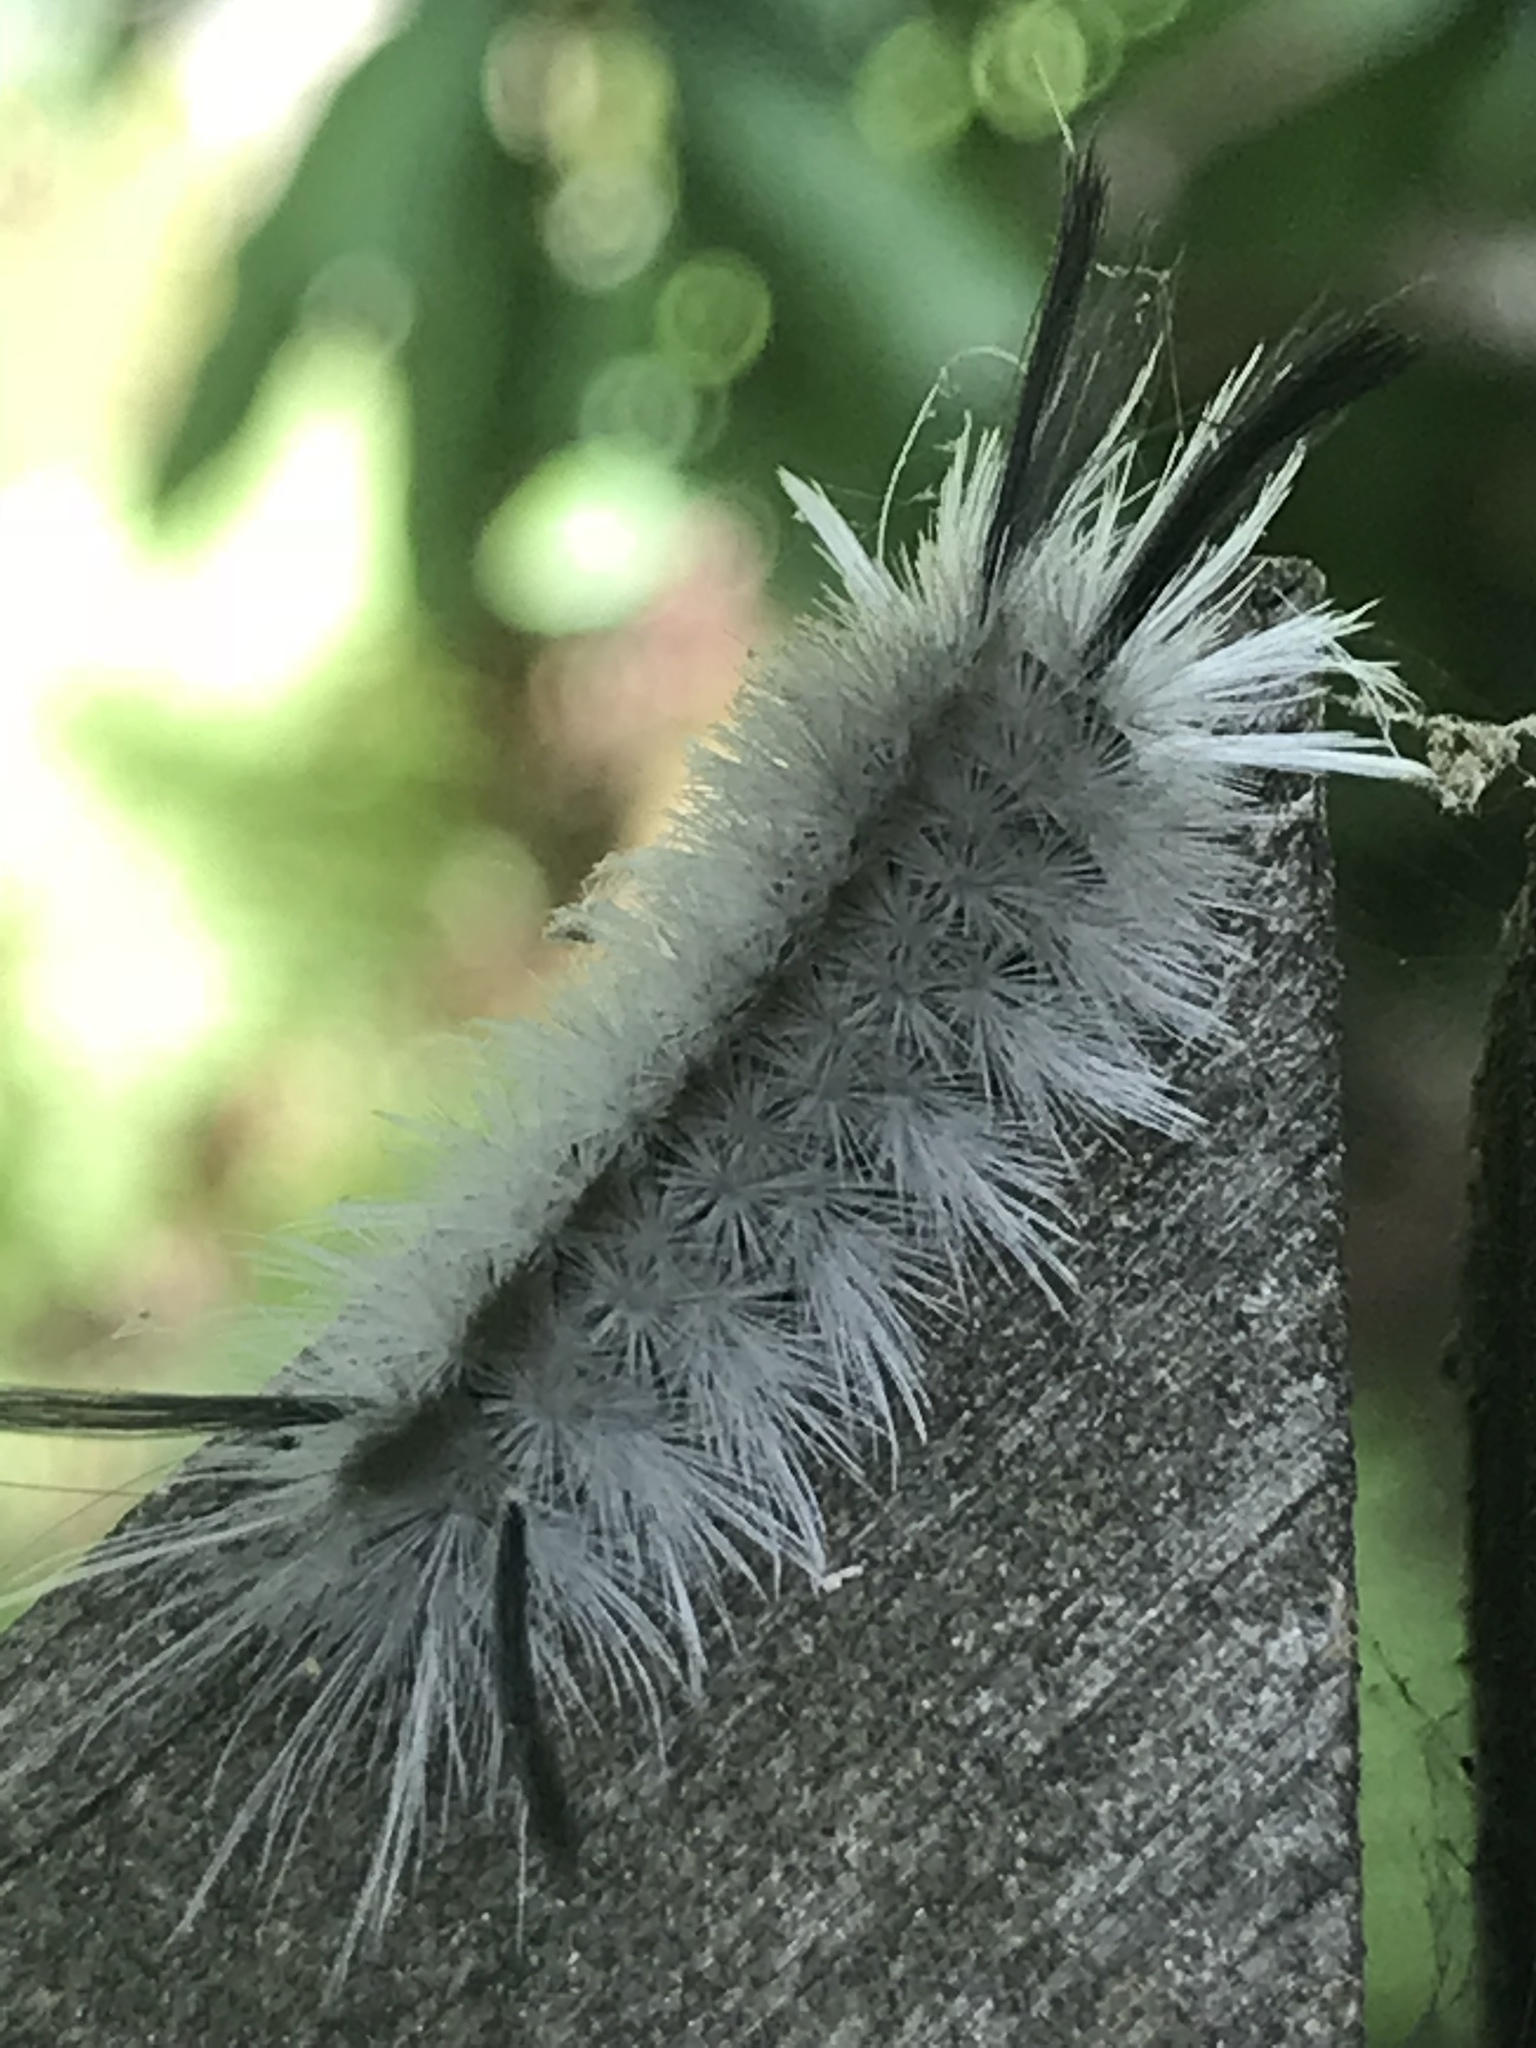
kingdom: Animalia
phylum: Arthropoda
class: Insecta
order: Lepidoptera
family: Erebidae
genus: Halysidota
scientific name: Halysidota tessellaris
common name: Banded tussock moth
